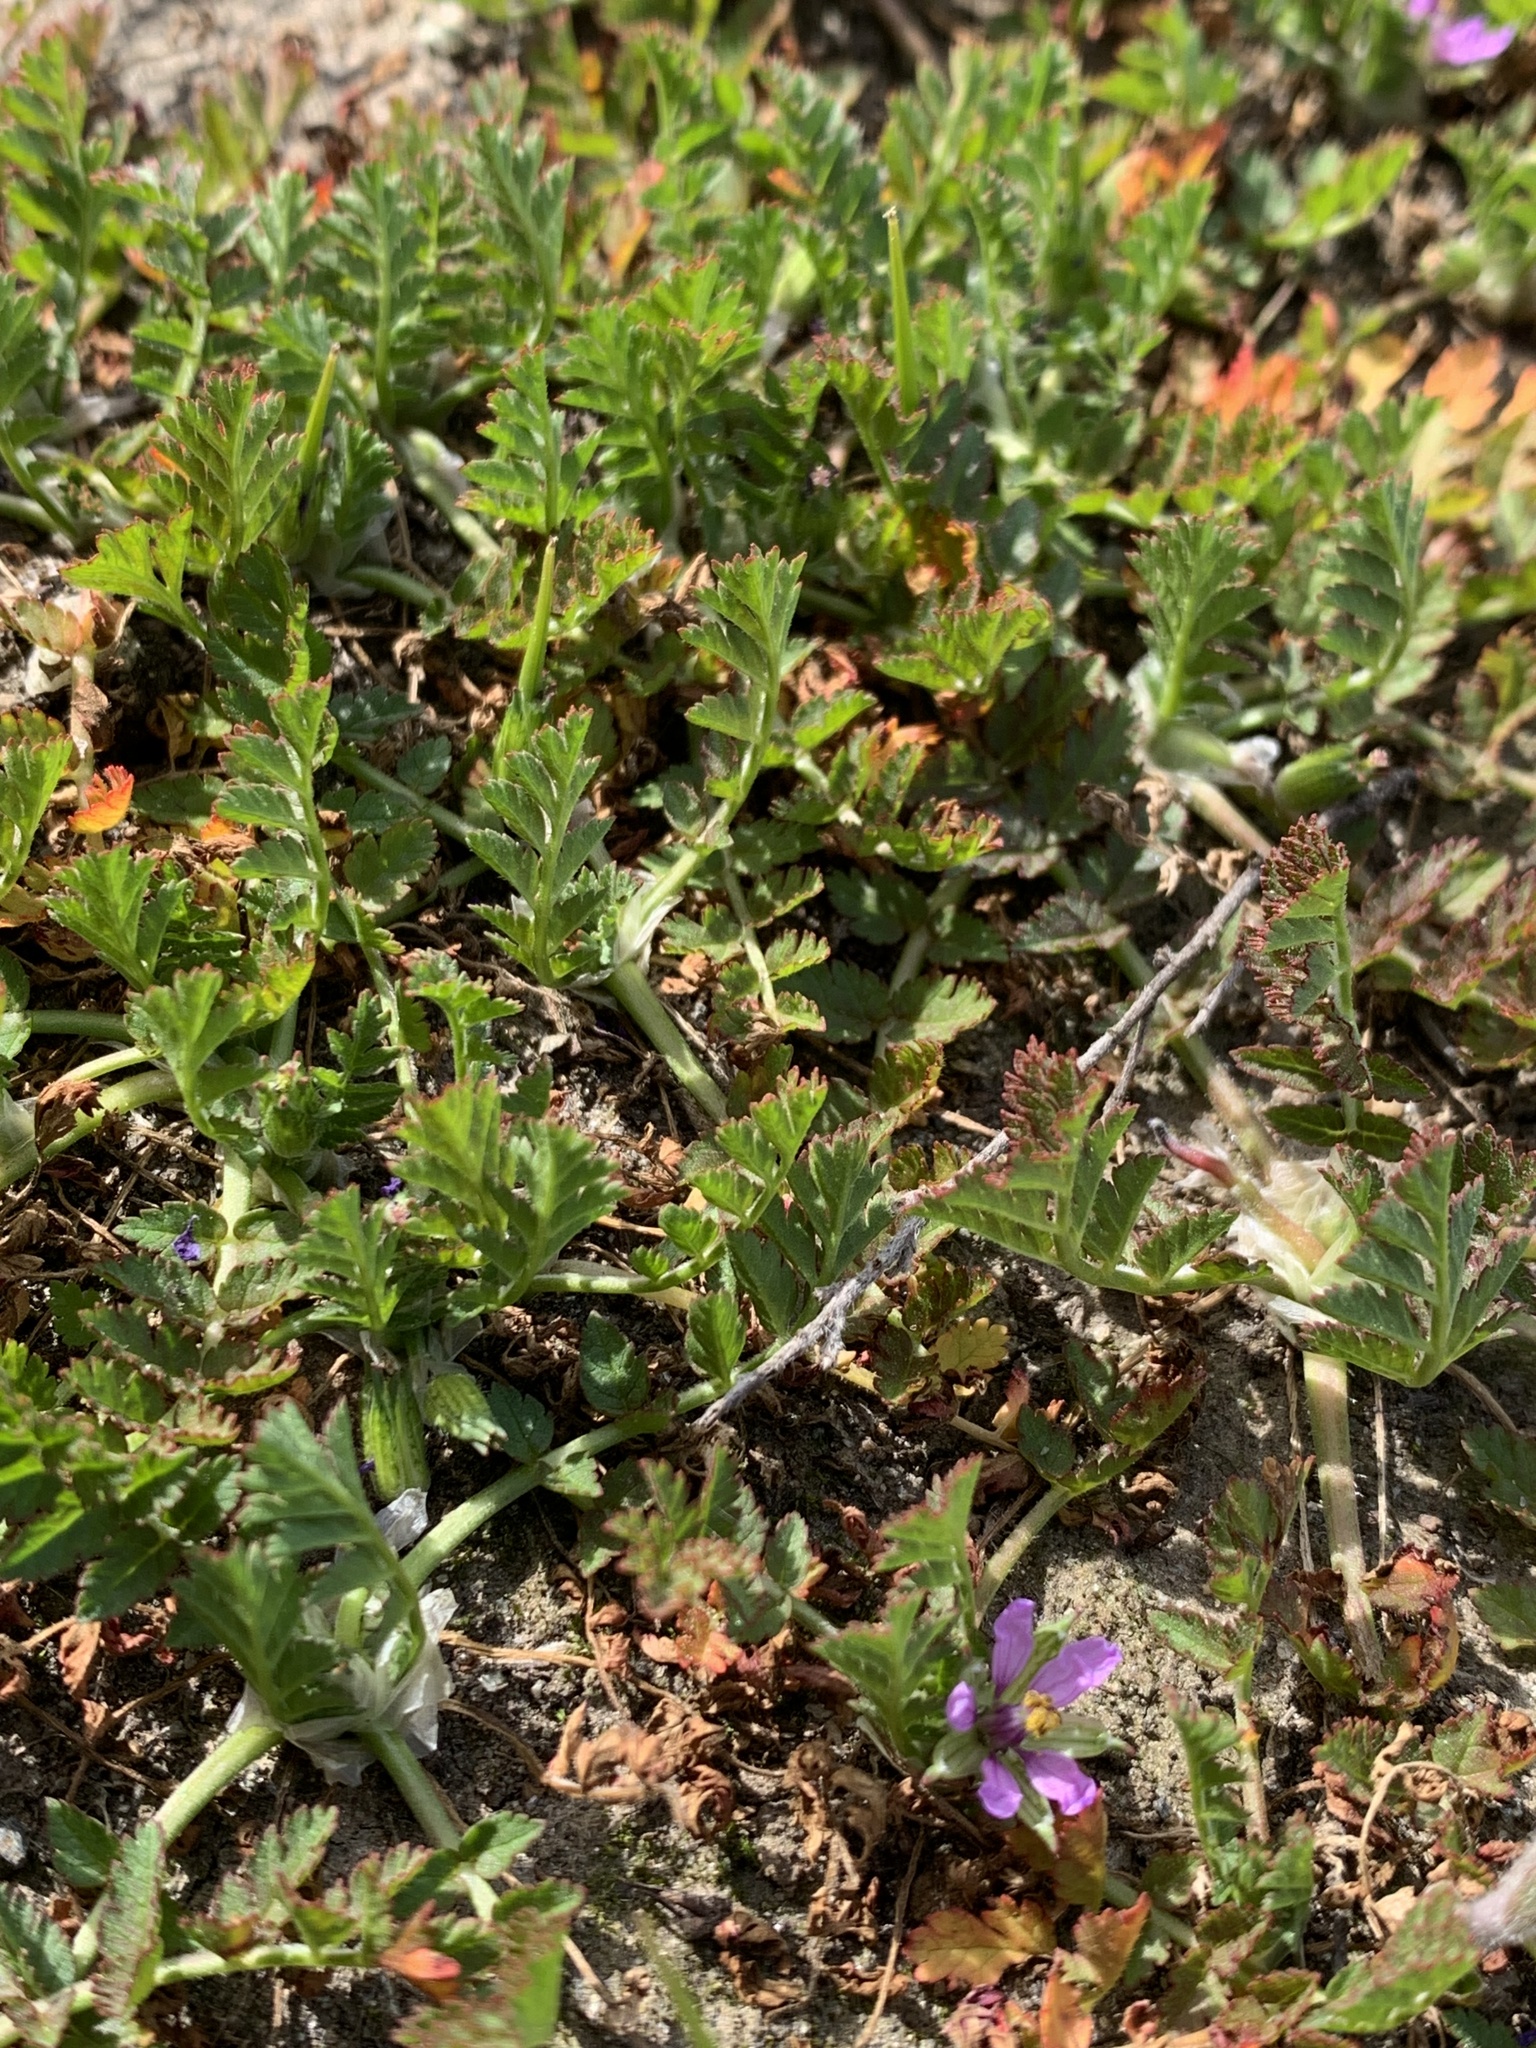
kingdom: Plantae
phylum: Tracheophyta
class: Magnoliopsida
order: Geraniales
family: Geraniaceae
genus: Erodium
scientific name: Erodium moschatum
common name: Musk stork's-bill
